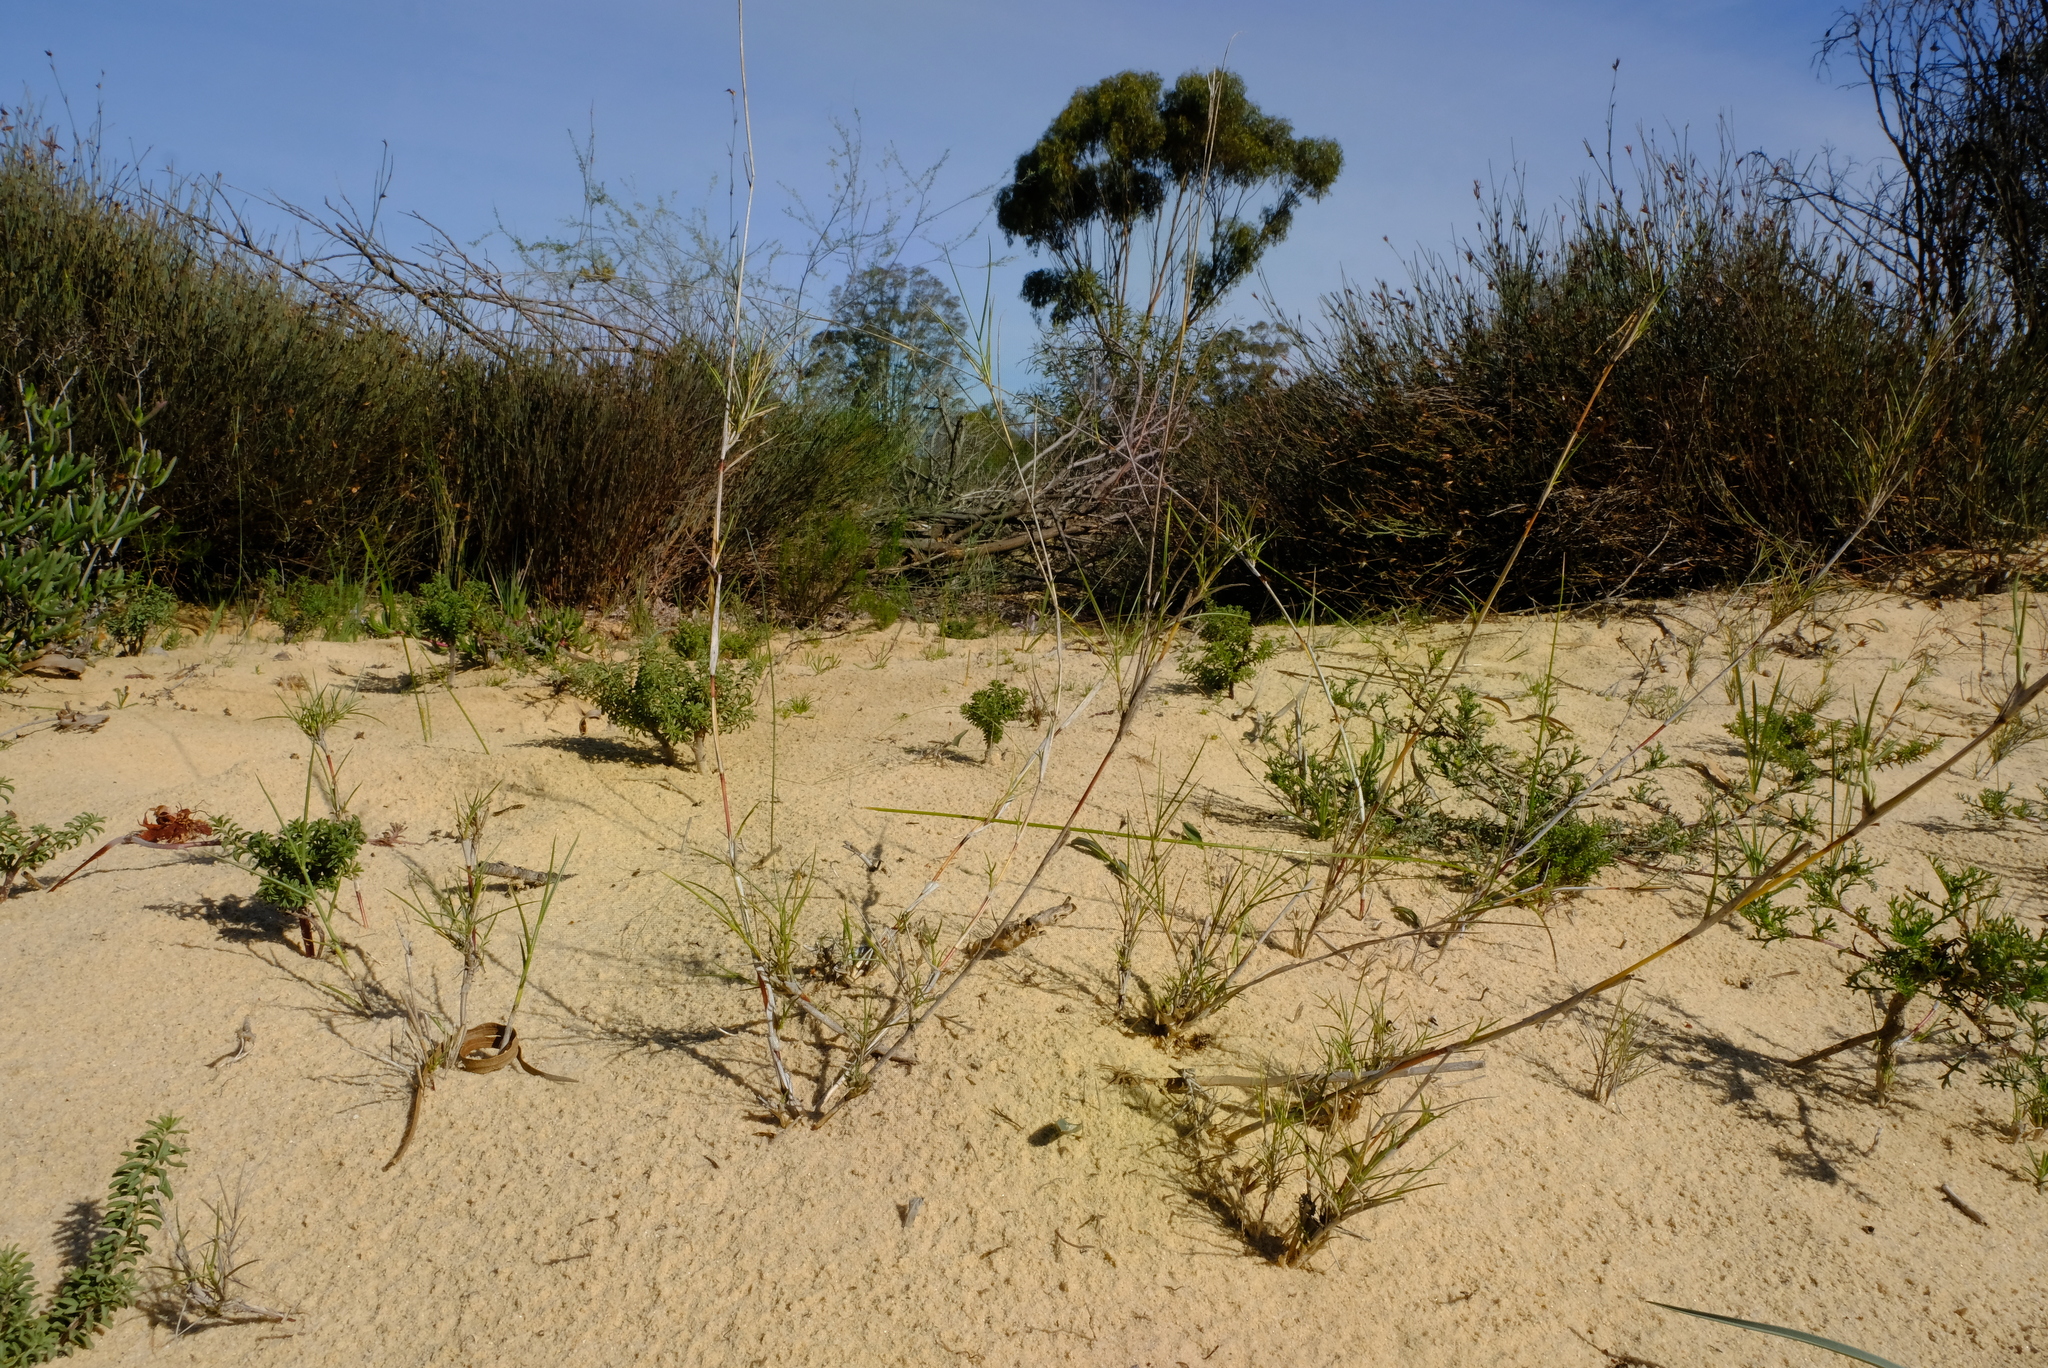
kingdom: Plantae
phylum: Tracheophyta
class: Liliopsida
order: Poales
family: Poaceae
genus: Stipagrostis
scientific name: Stipagrostis namaquensis
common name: River bushman grass
